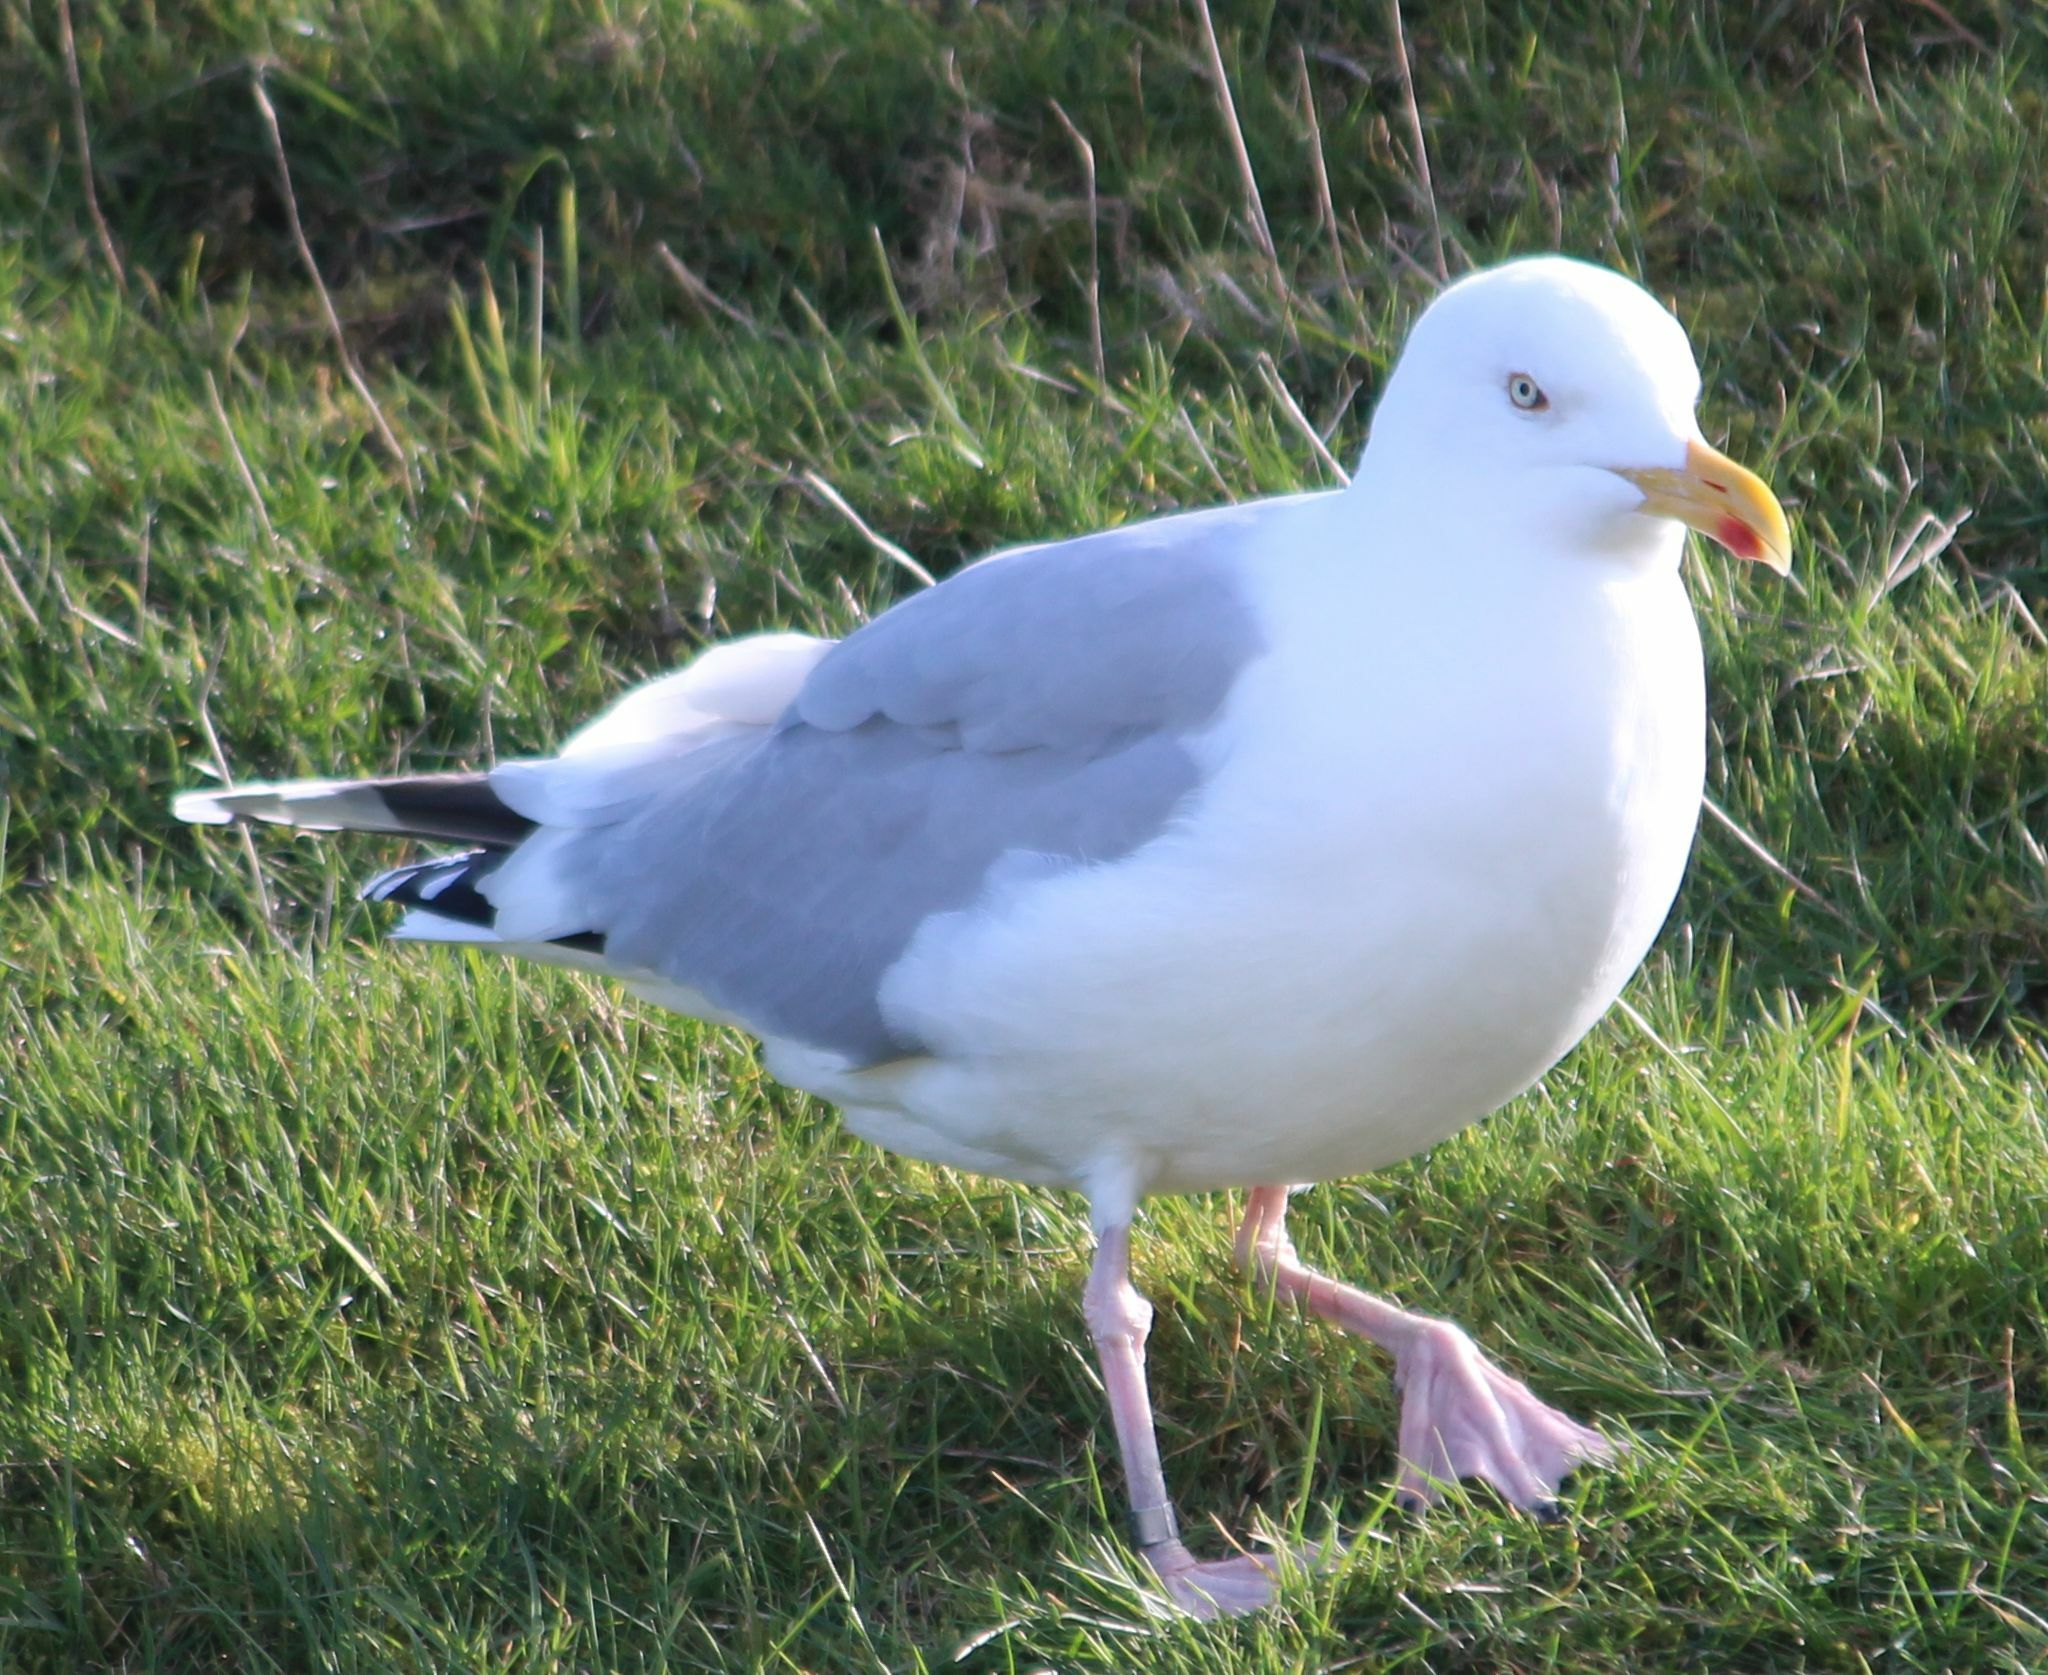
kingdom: Animalia
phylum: Chordata
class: Aves
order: Charadriiformes
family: Laridae
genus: Larus
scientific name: Larus argentatus
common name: Herring gull
